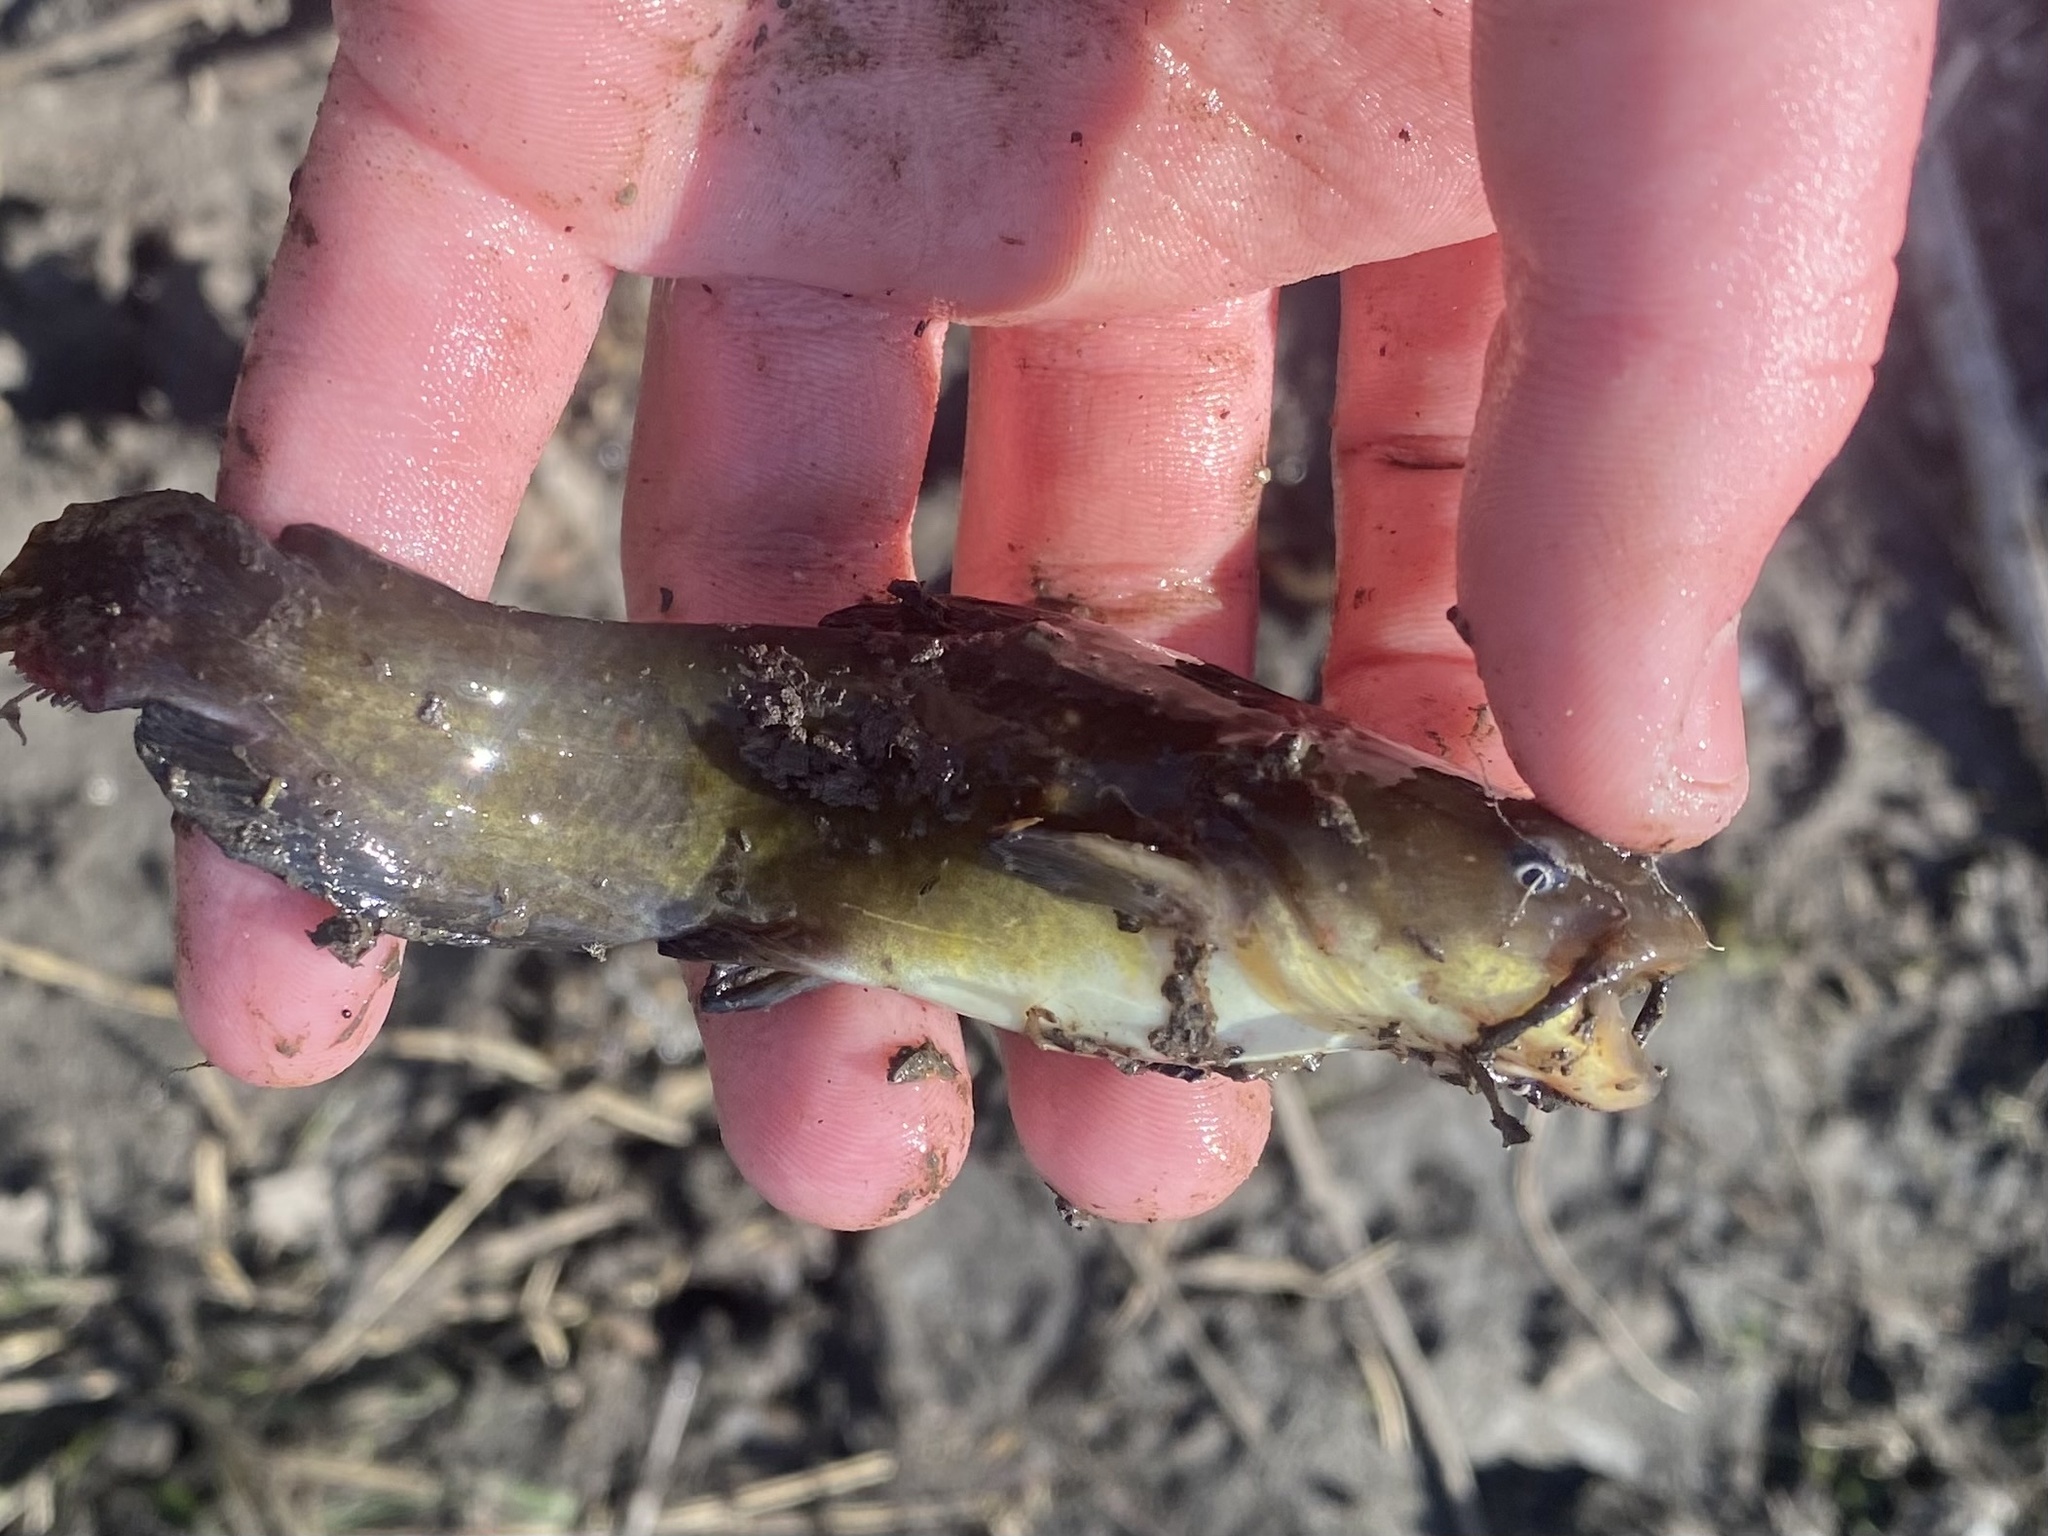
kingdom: Animalia
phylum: Chordata
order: Siluriformes
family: Ictaluridae
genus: Ameiurus
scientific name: Ameiurus natalis
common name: Yellow bullhead
